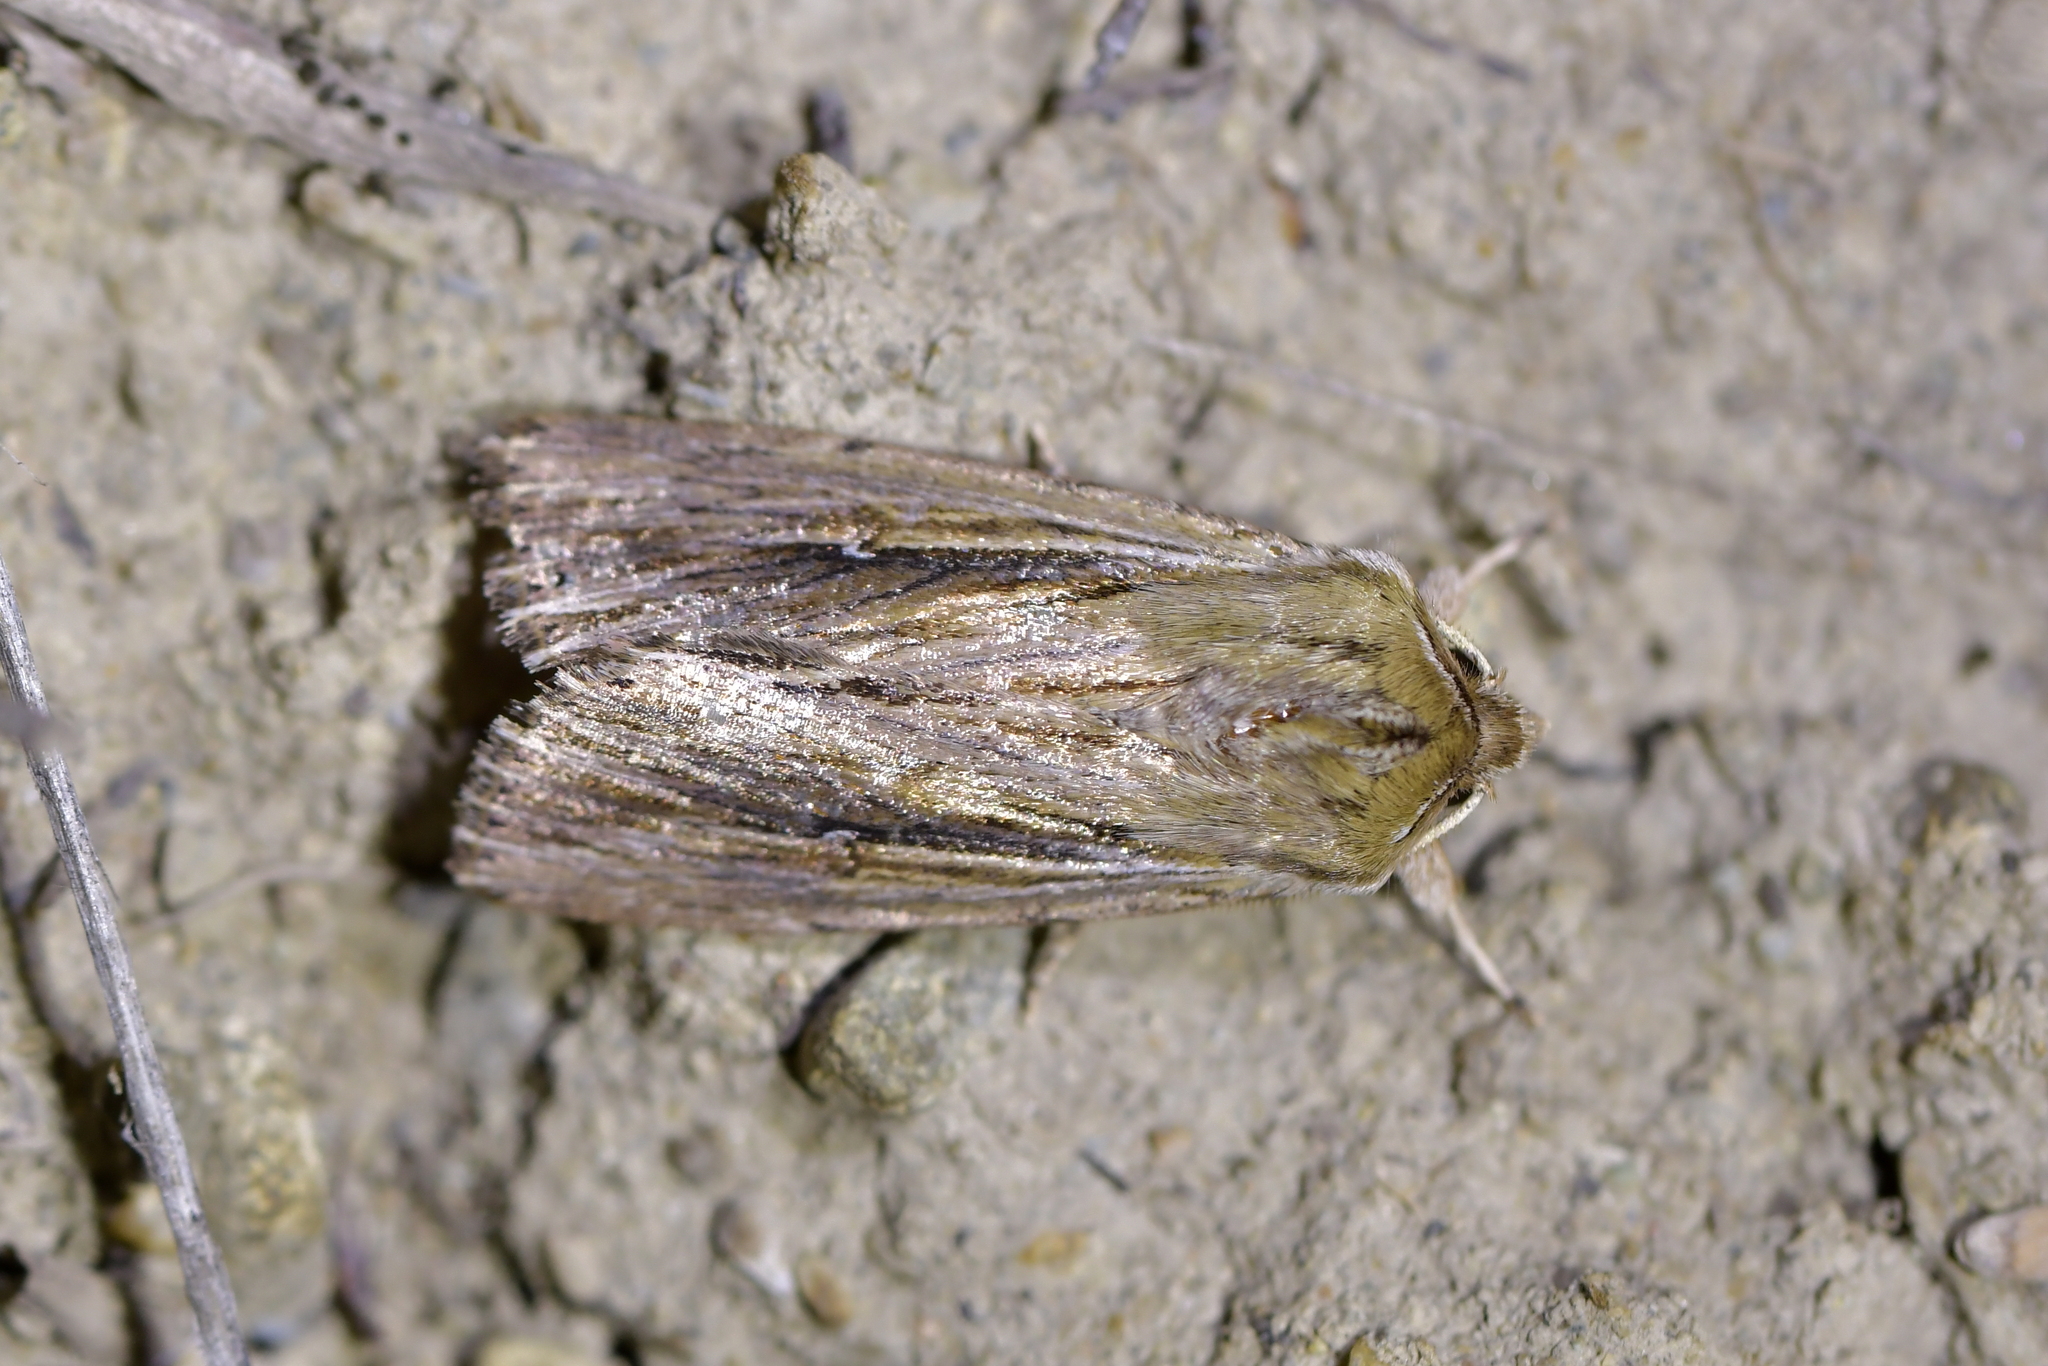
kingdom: Animalia
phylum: Arthropoda
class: Insecta
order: Lepidoptera
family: Noctuidae
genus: Persectania
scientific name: Persectania aversa
